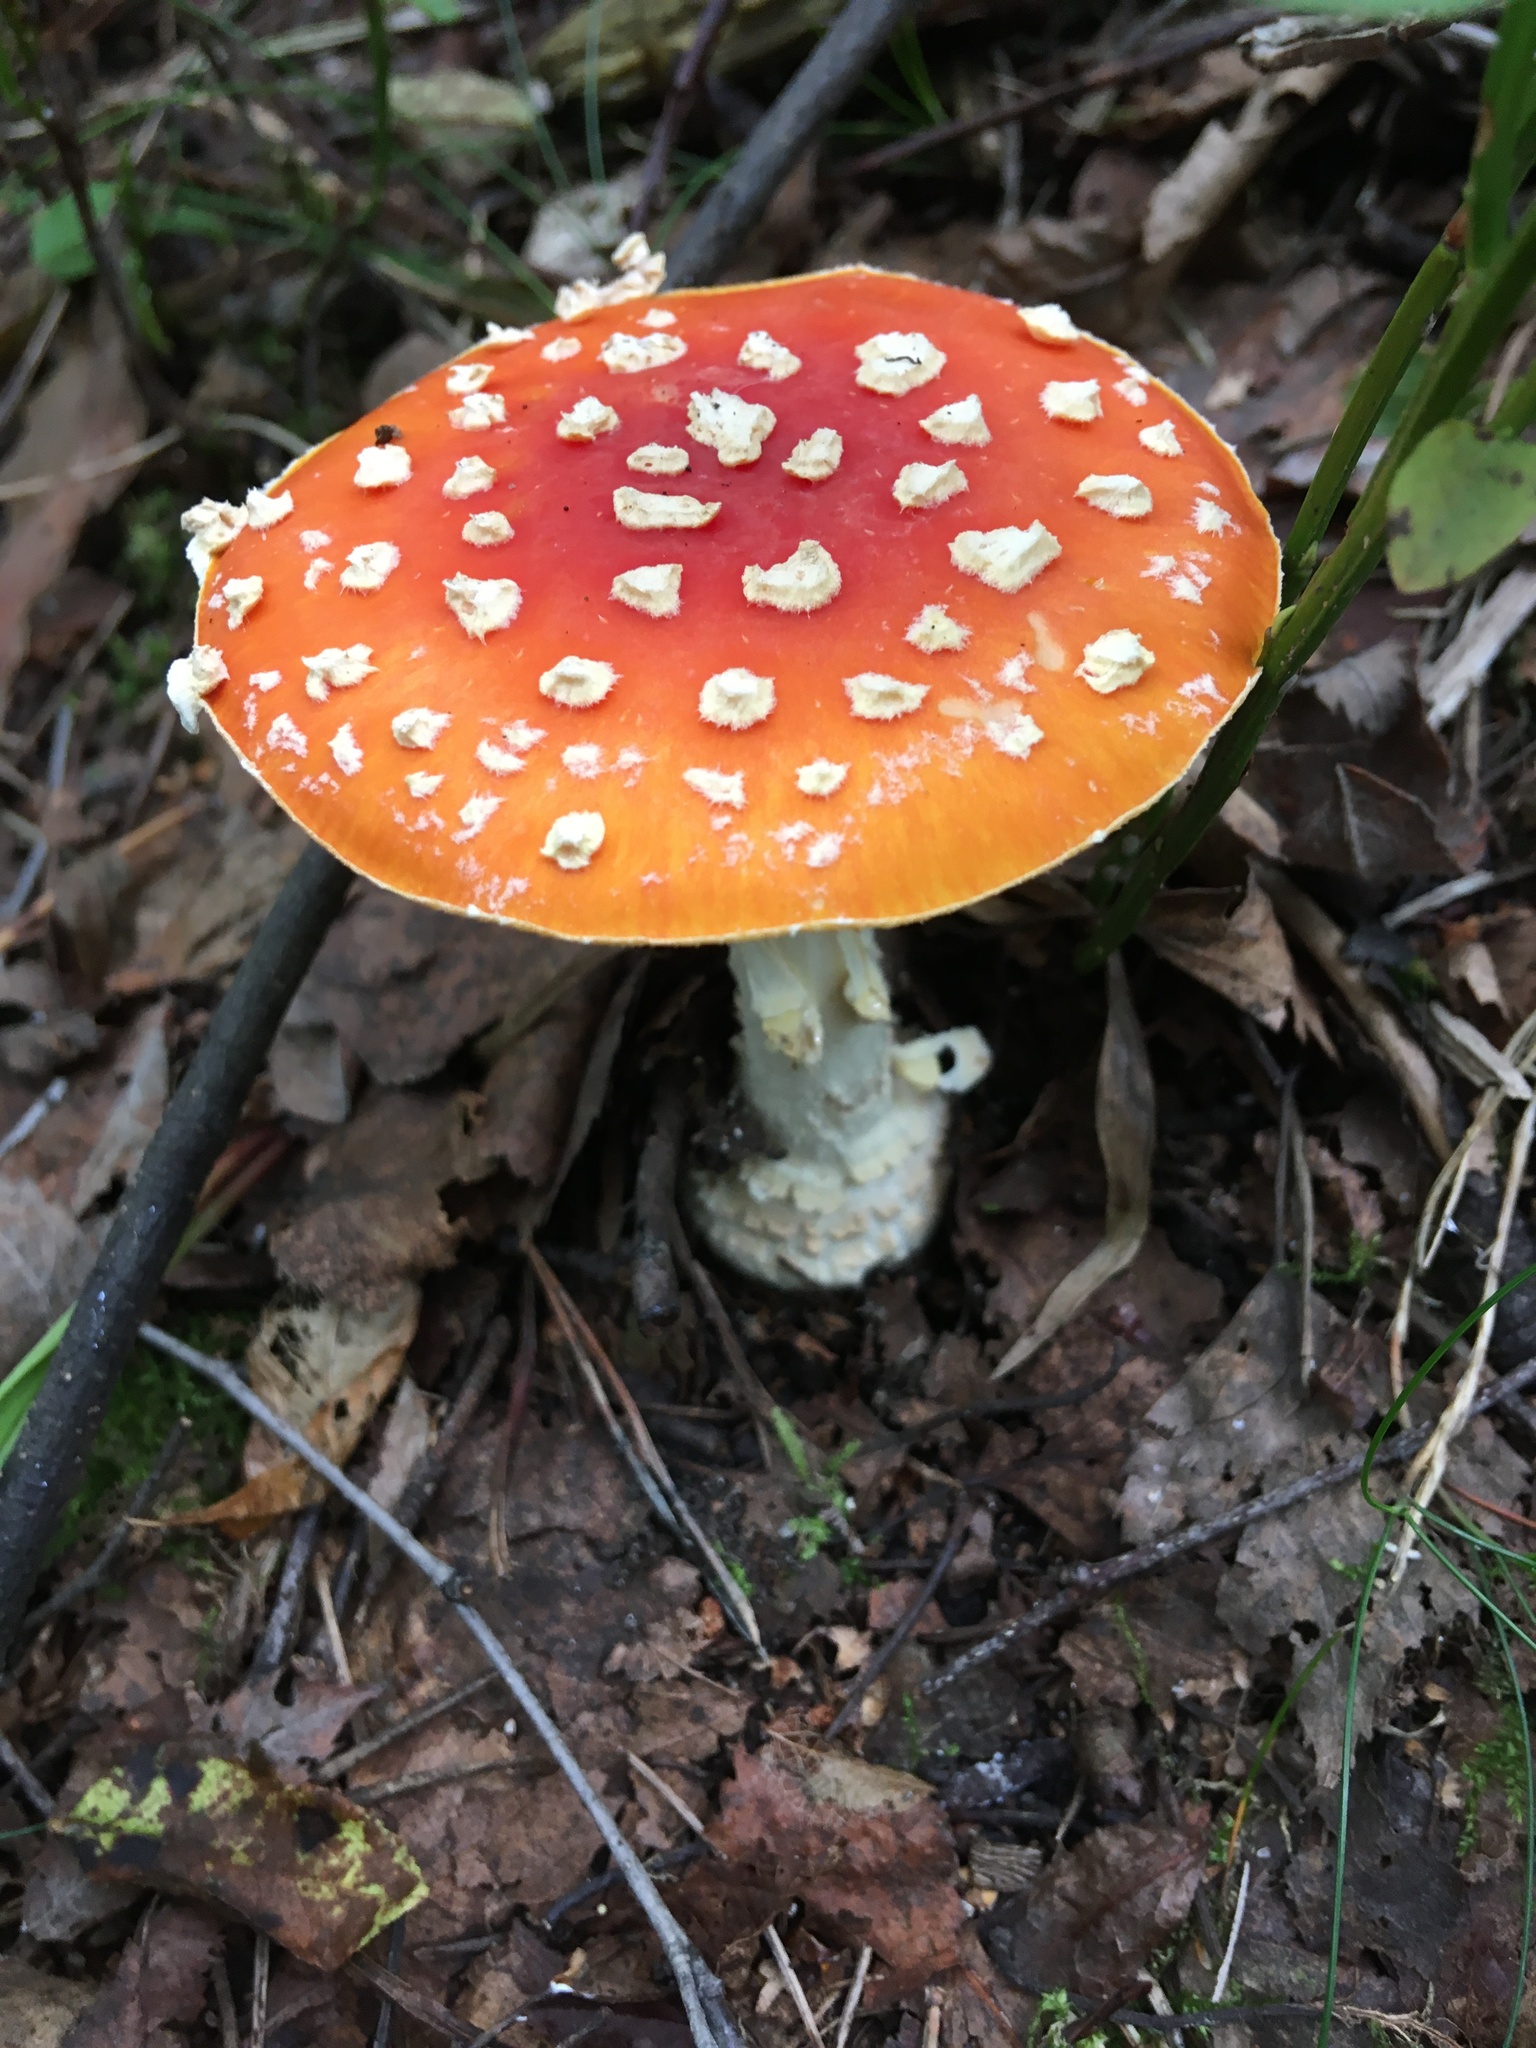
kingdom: Fungi
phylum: Basidiomycota
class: Agaricomycetes
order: Agaricales
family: Amanitaceae
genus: Amanita
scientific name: Amanita muscaria
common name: Fly agaric
